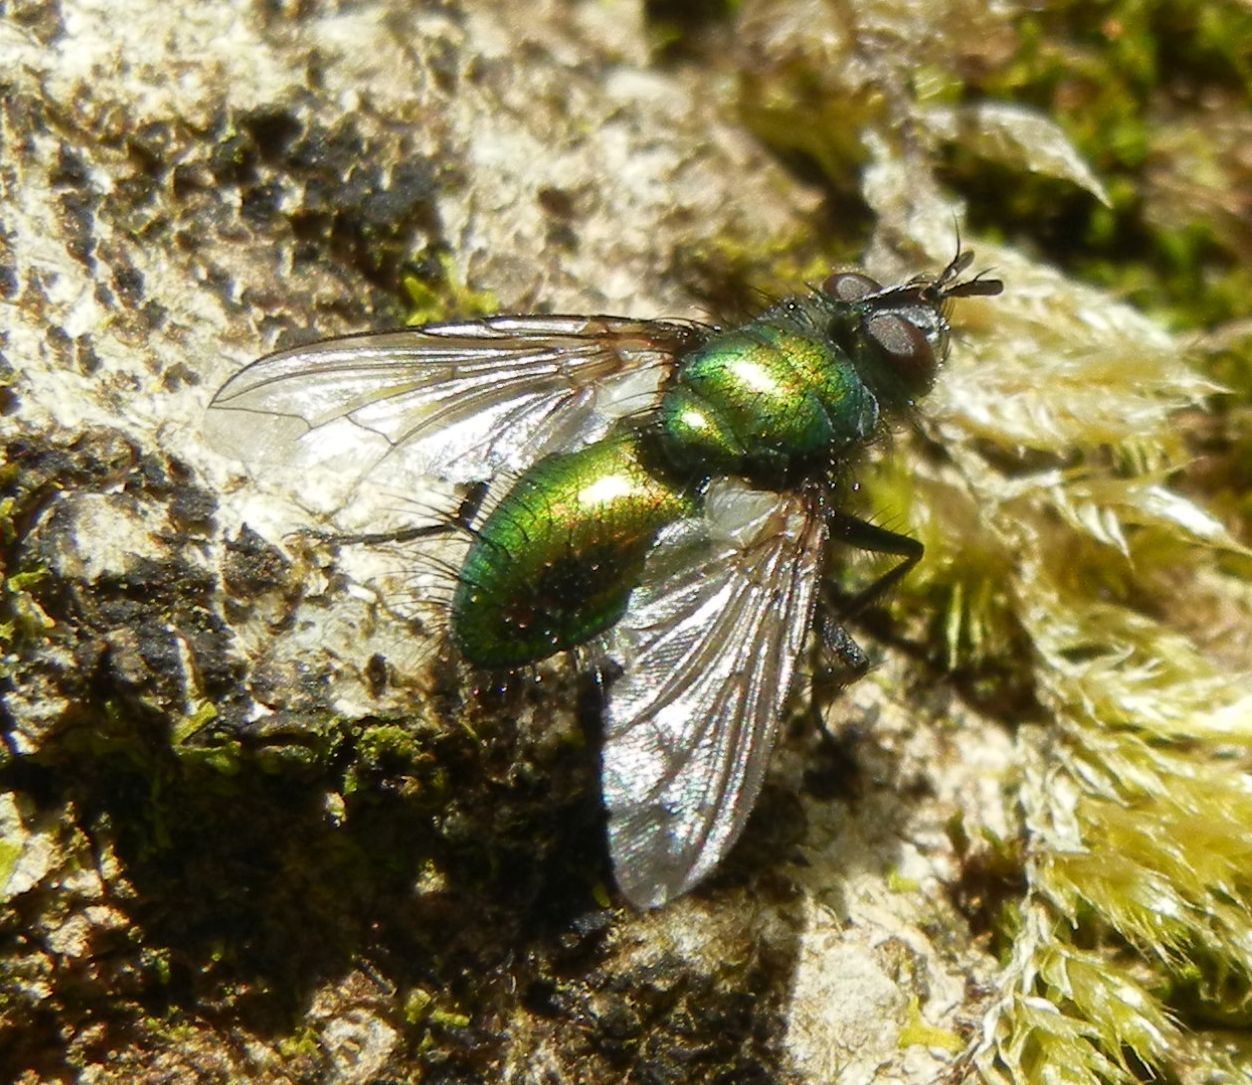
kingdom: Animalia
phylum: Arthropoda
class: Insecta
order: Diptera
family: Tachinidae
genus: Gymnocheta
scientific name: Gymnocheta viridis
